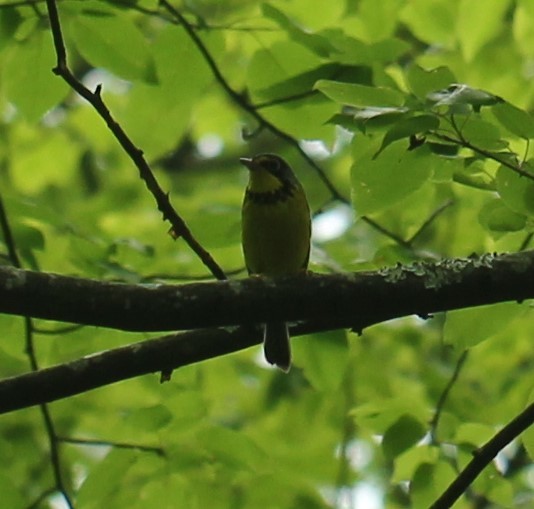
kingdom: Animalia
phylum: Chordata
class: Aves
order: Passeriformes
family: Parulidae
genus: Cardellina
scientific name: Cardellina canadensis
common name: Canada warbler
